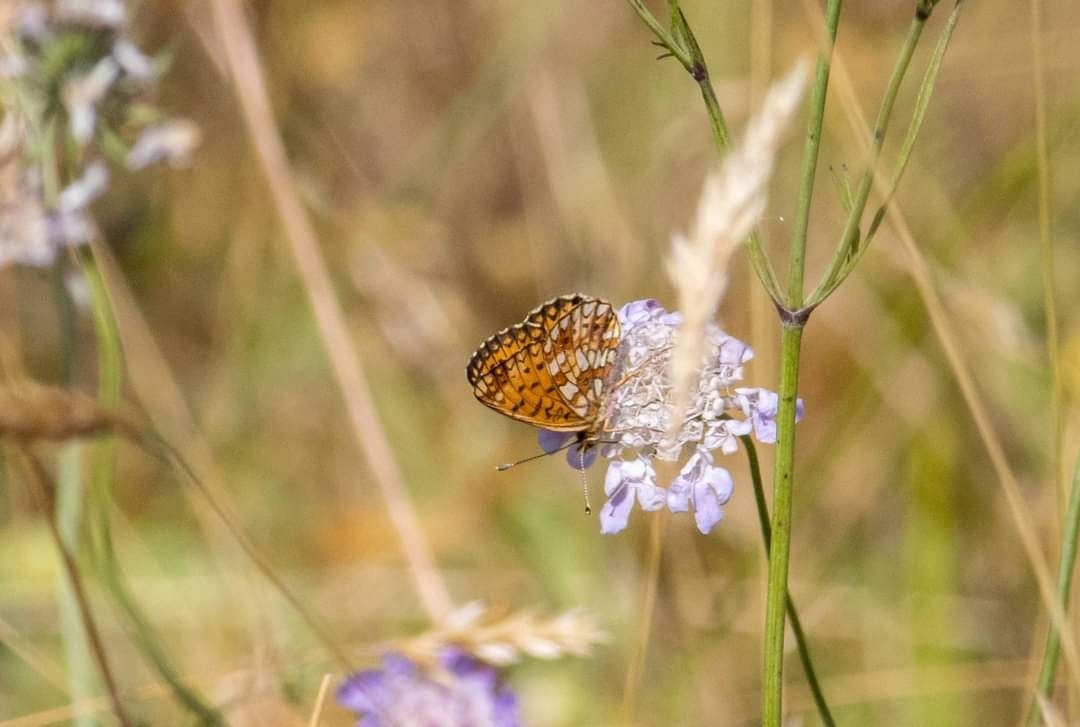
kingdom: Animalia
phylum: Arthropoda
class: Insecta
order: Lepidoptera
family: Nymphalidae
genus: Boloria
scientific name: Boloria selene
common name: Small pearl-bordered fritillary
